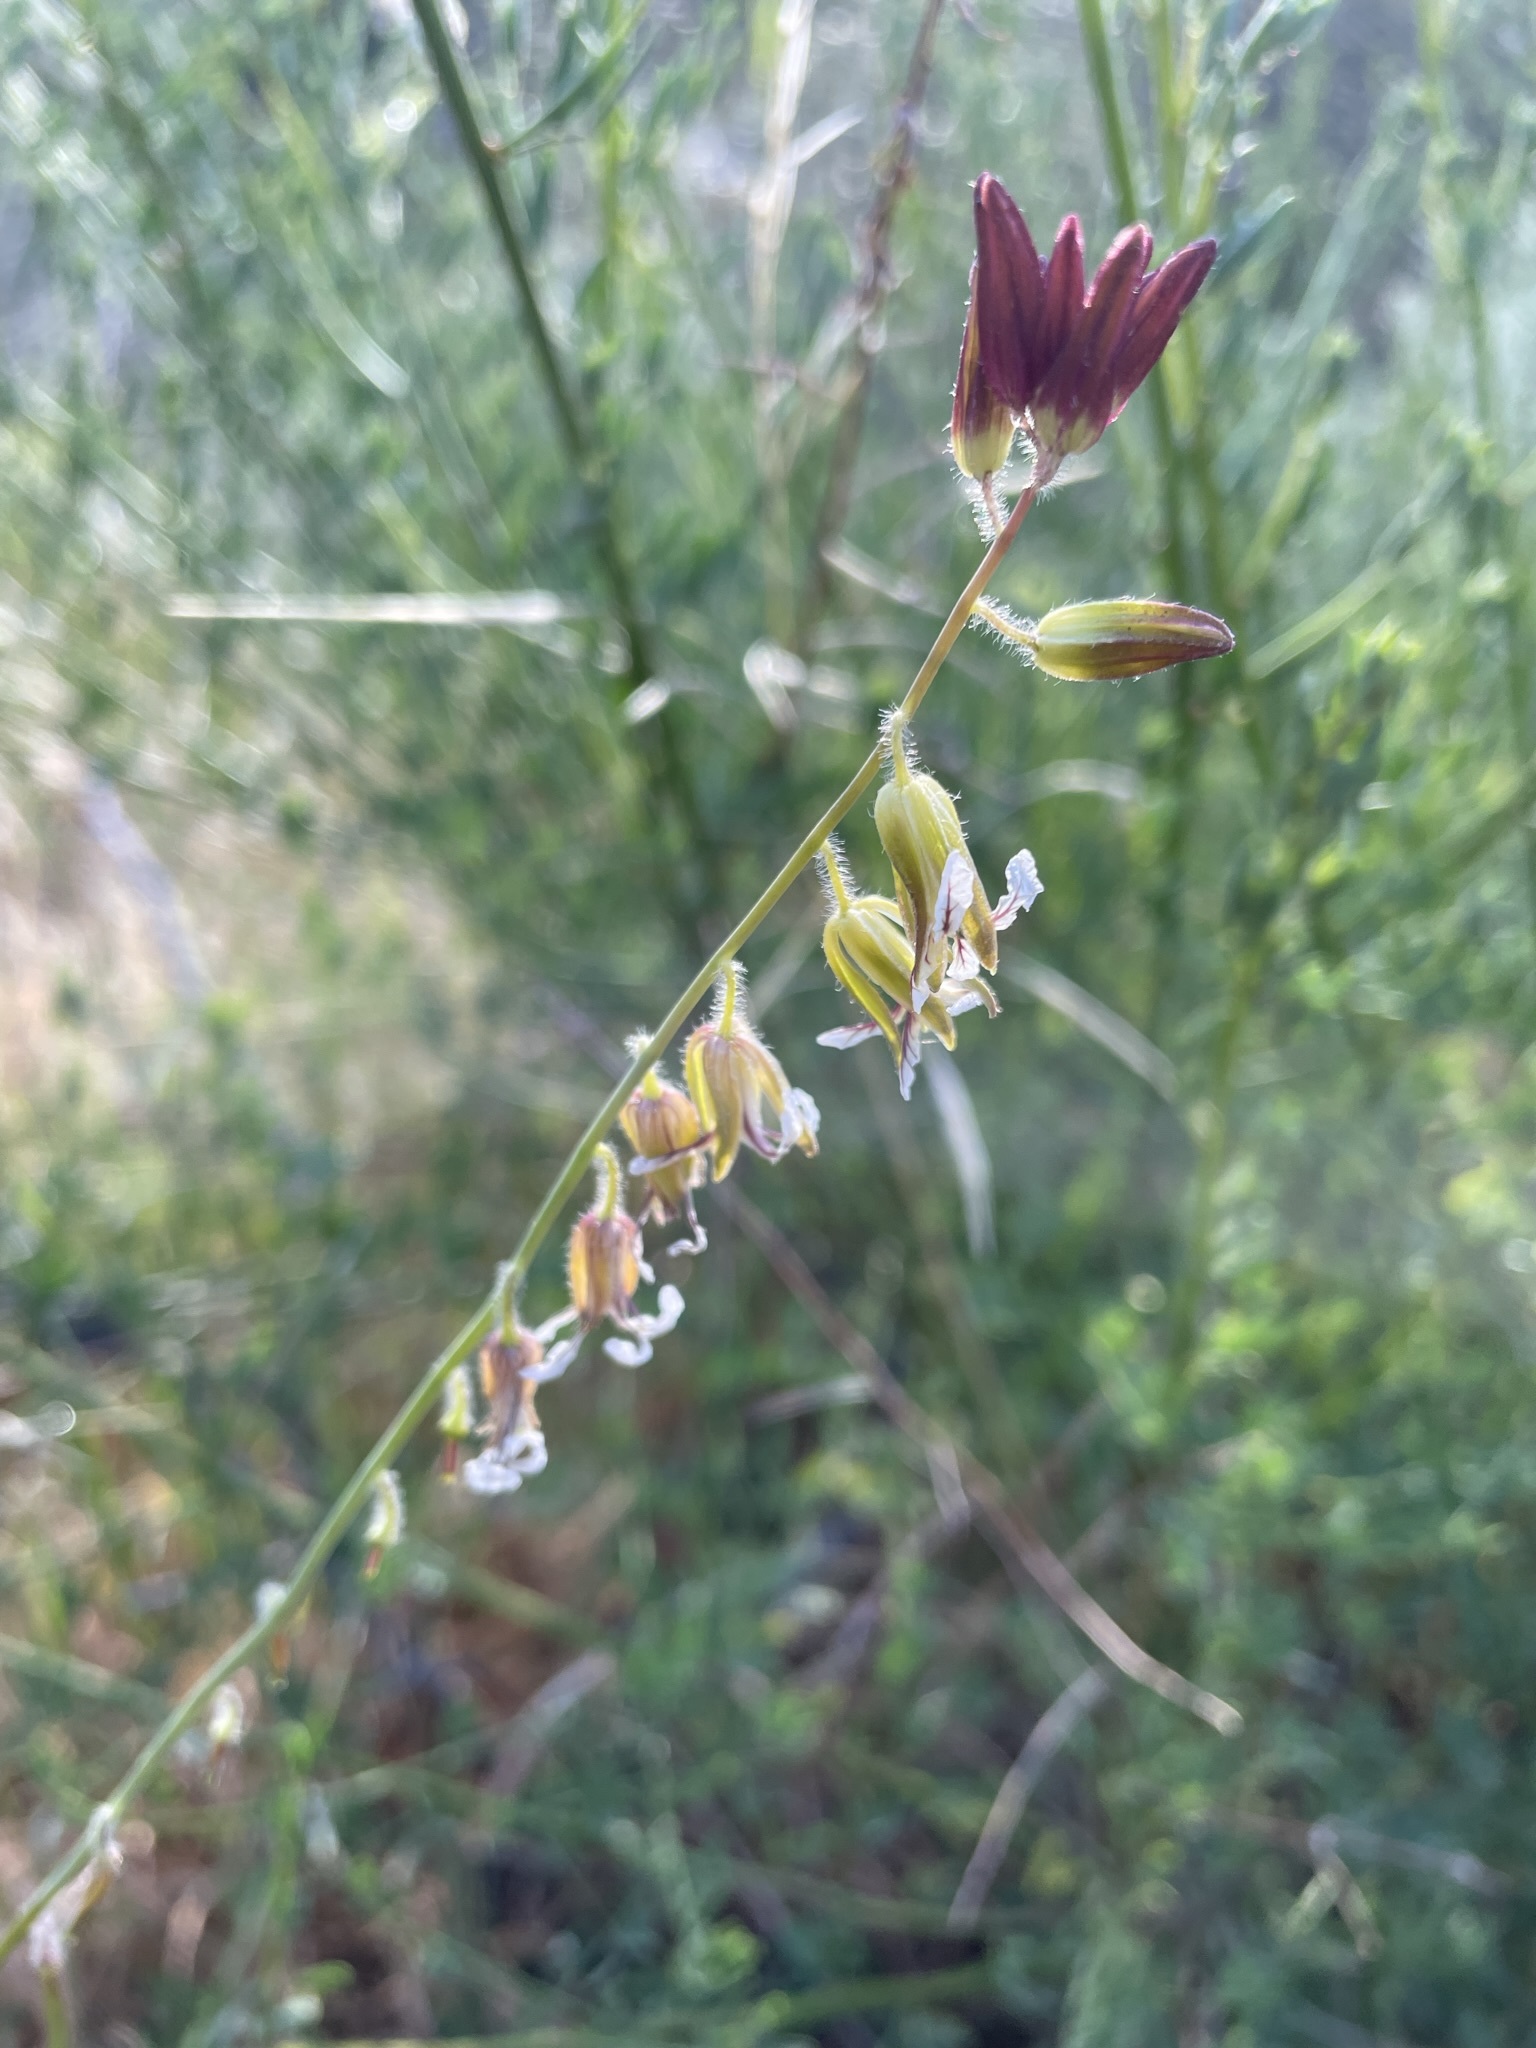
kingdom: Plantae
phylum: Tracheophyta
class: Magnoliopsida
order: Brassicales
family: Brassicaceae
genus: Streptanthus
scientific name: Streptanthus coulteri
